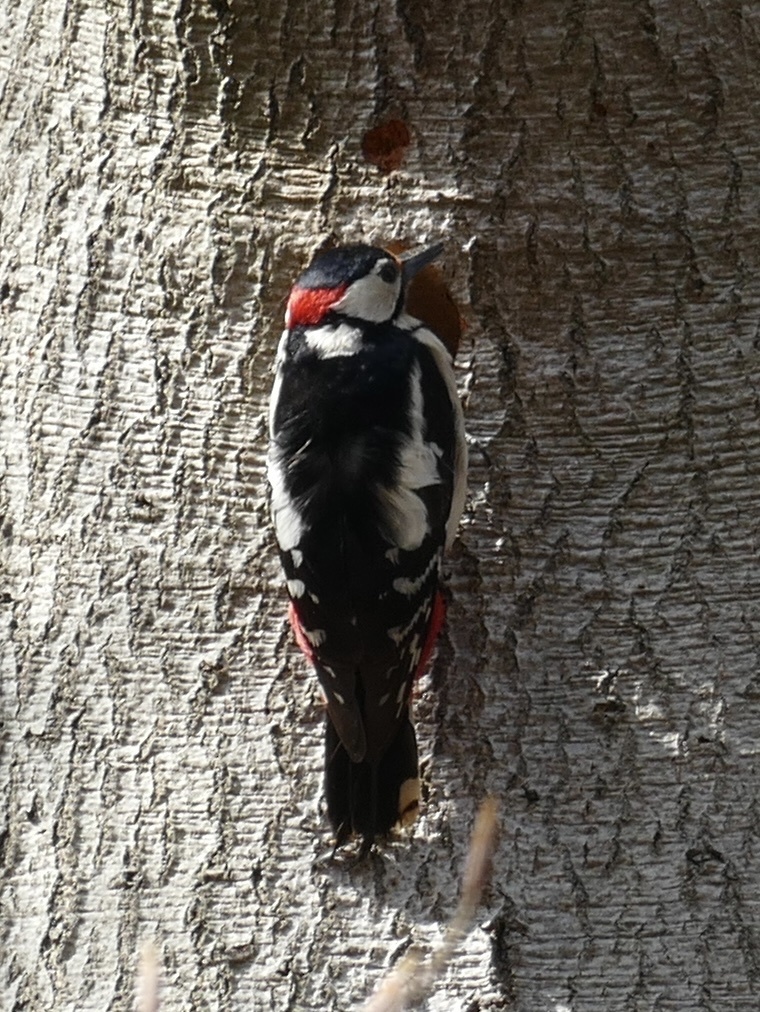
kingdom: Animalia
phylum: Chordata
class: Aves
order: Piciformes
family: Picidae
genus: Dendrocopos
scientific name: Dendrocopos major
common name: Great spotted woodpecker
